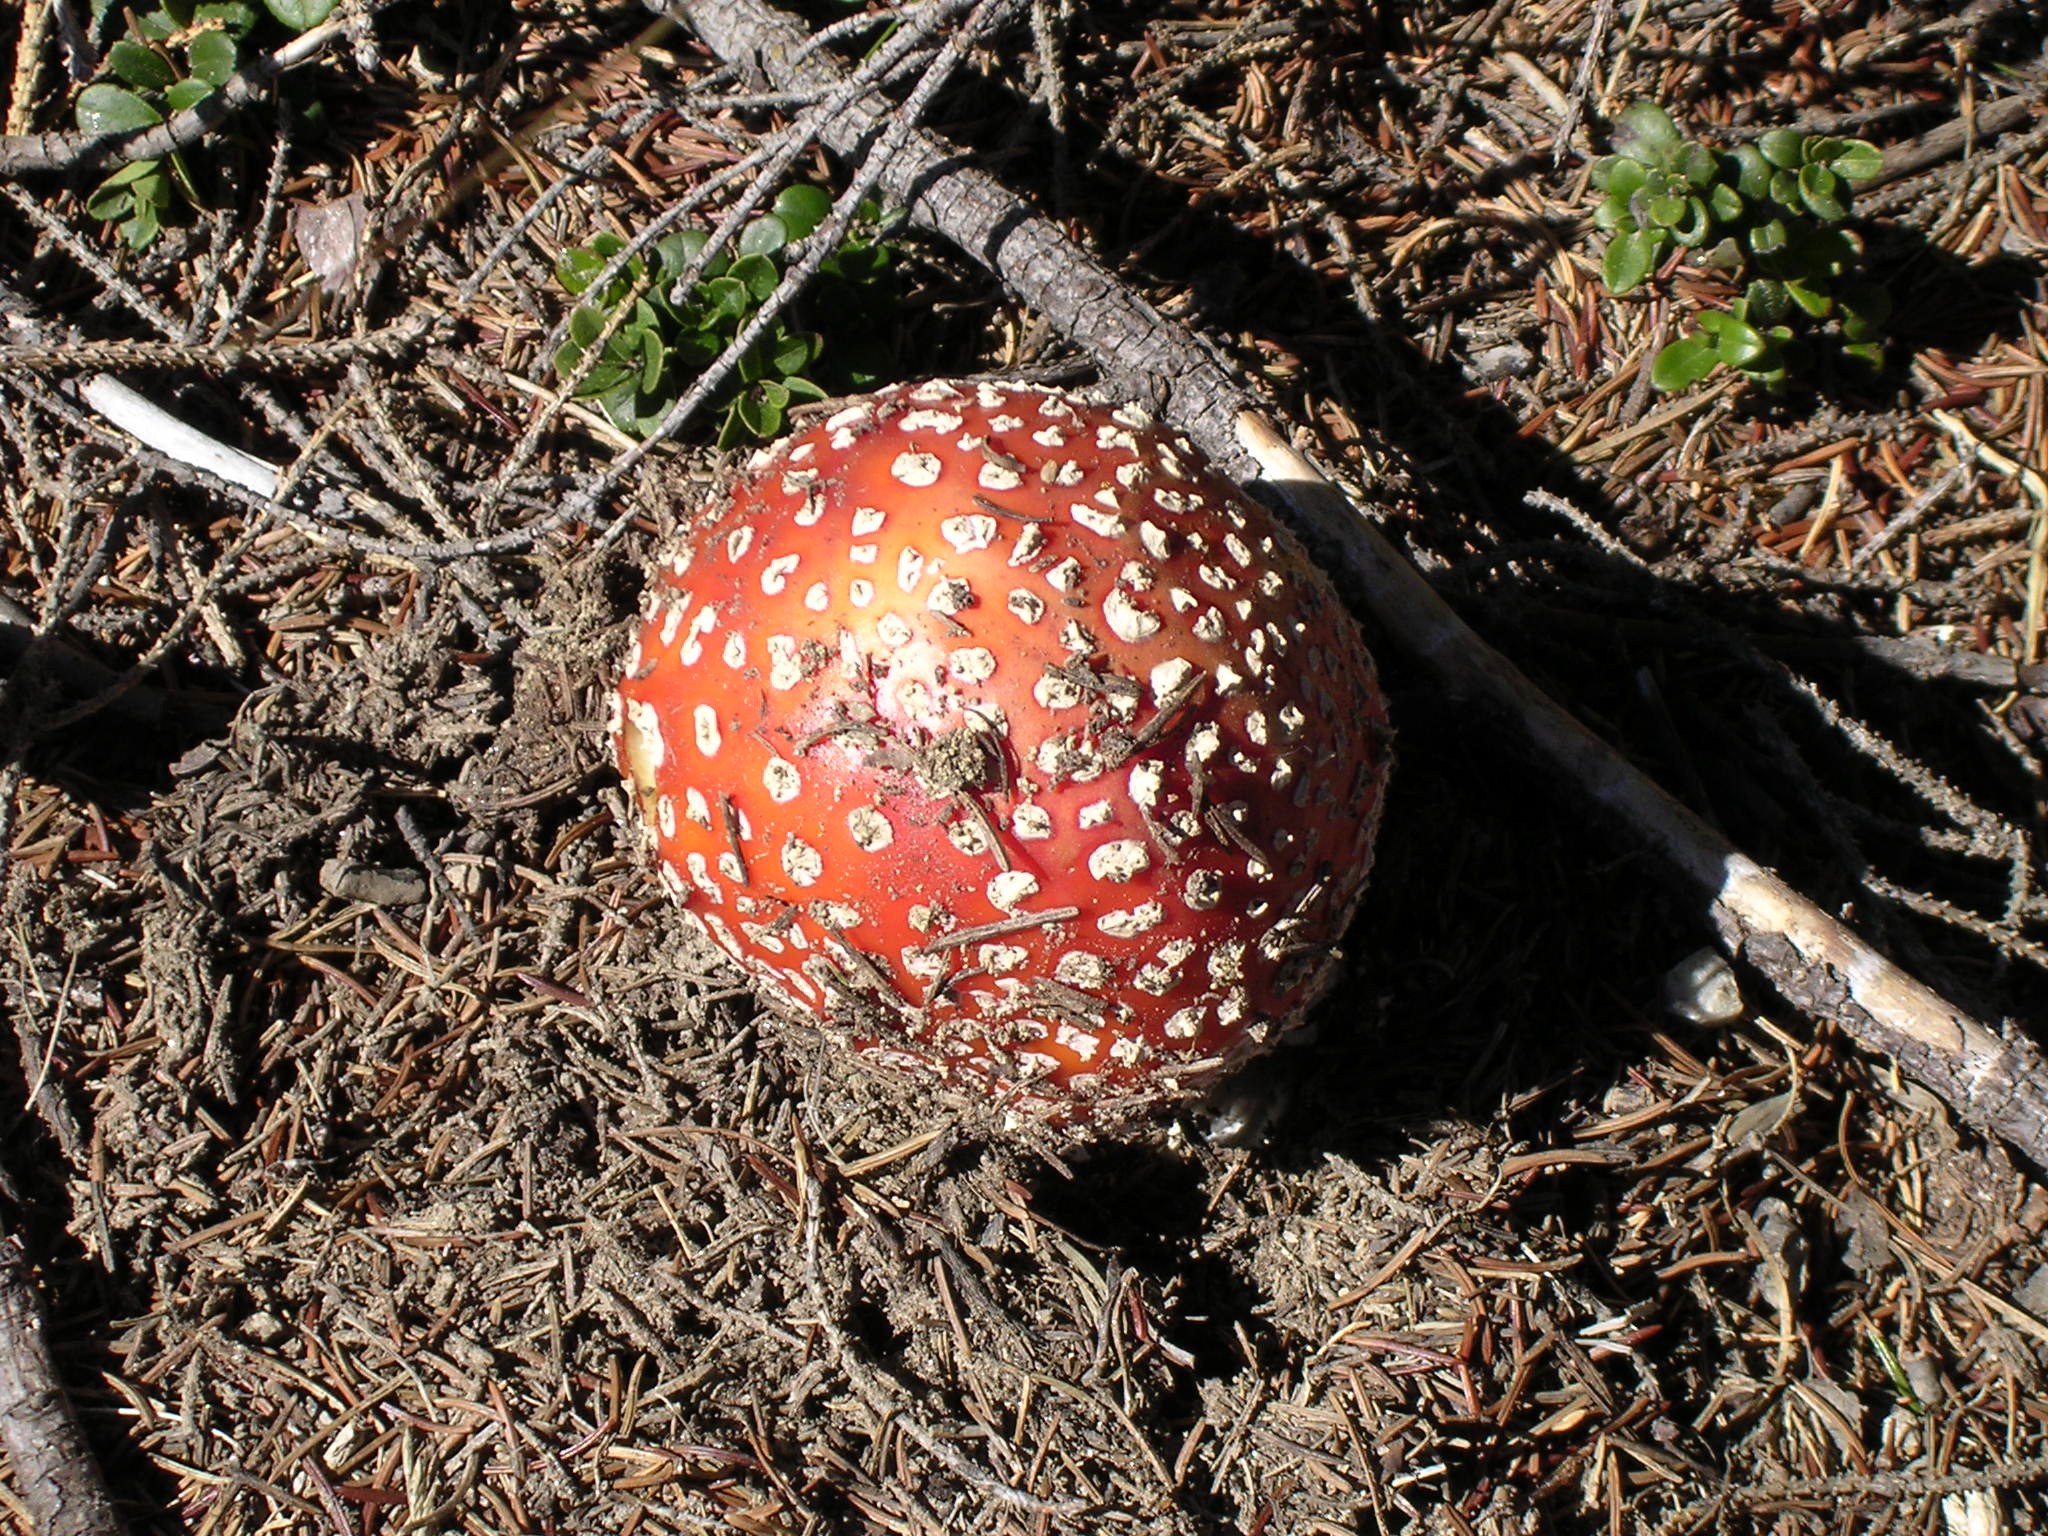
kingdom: Fungi
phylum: Basidiomycota
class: Agaricomycetes
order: Agaricales
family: Amanitaceae
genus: Amanita
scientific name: Amanita muscaria
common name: Fly agaric
